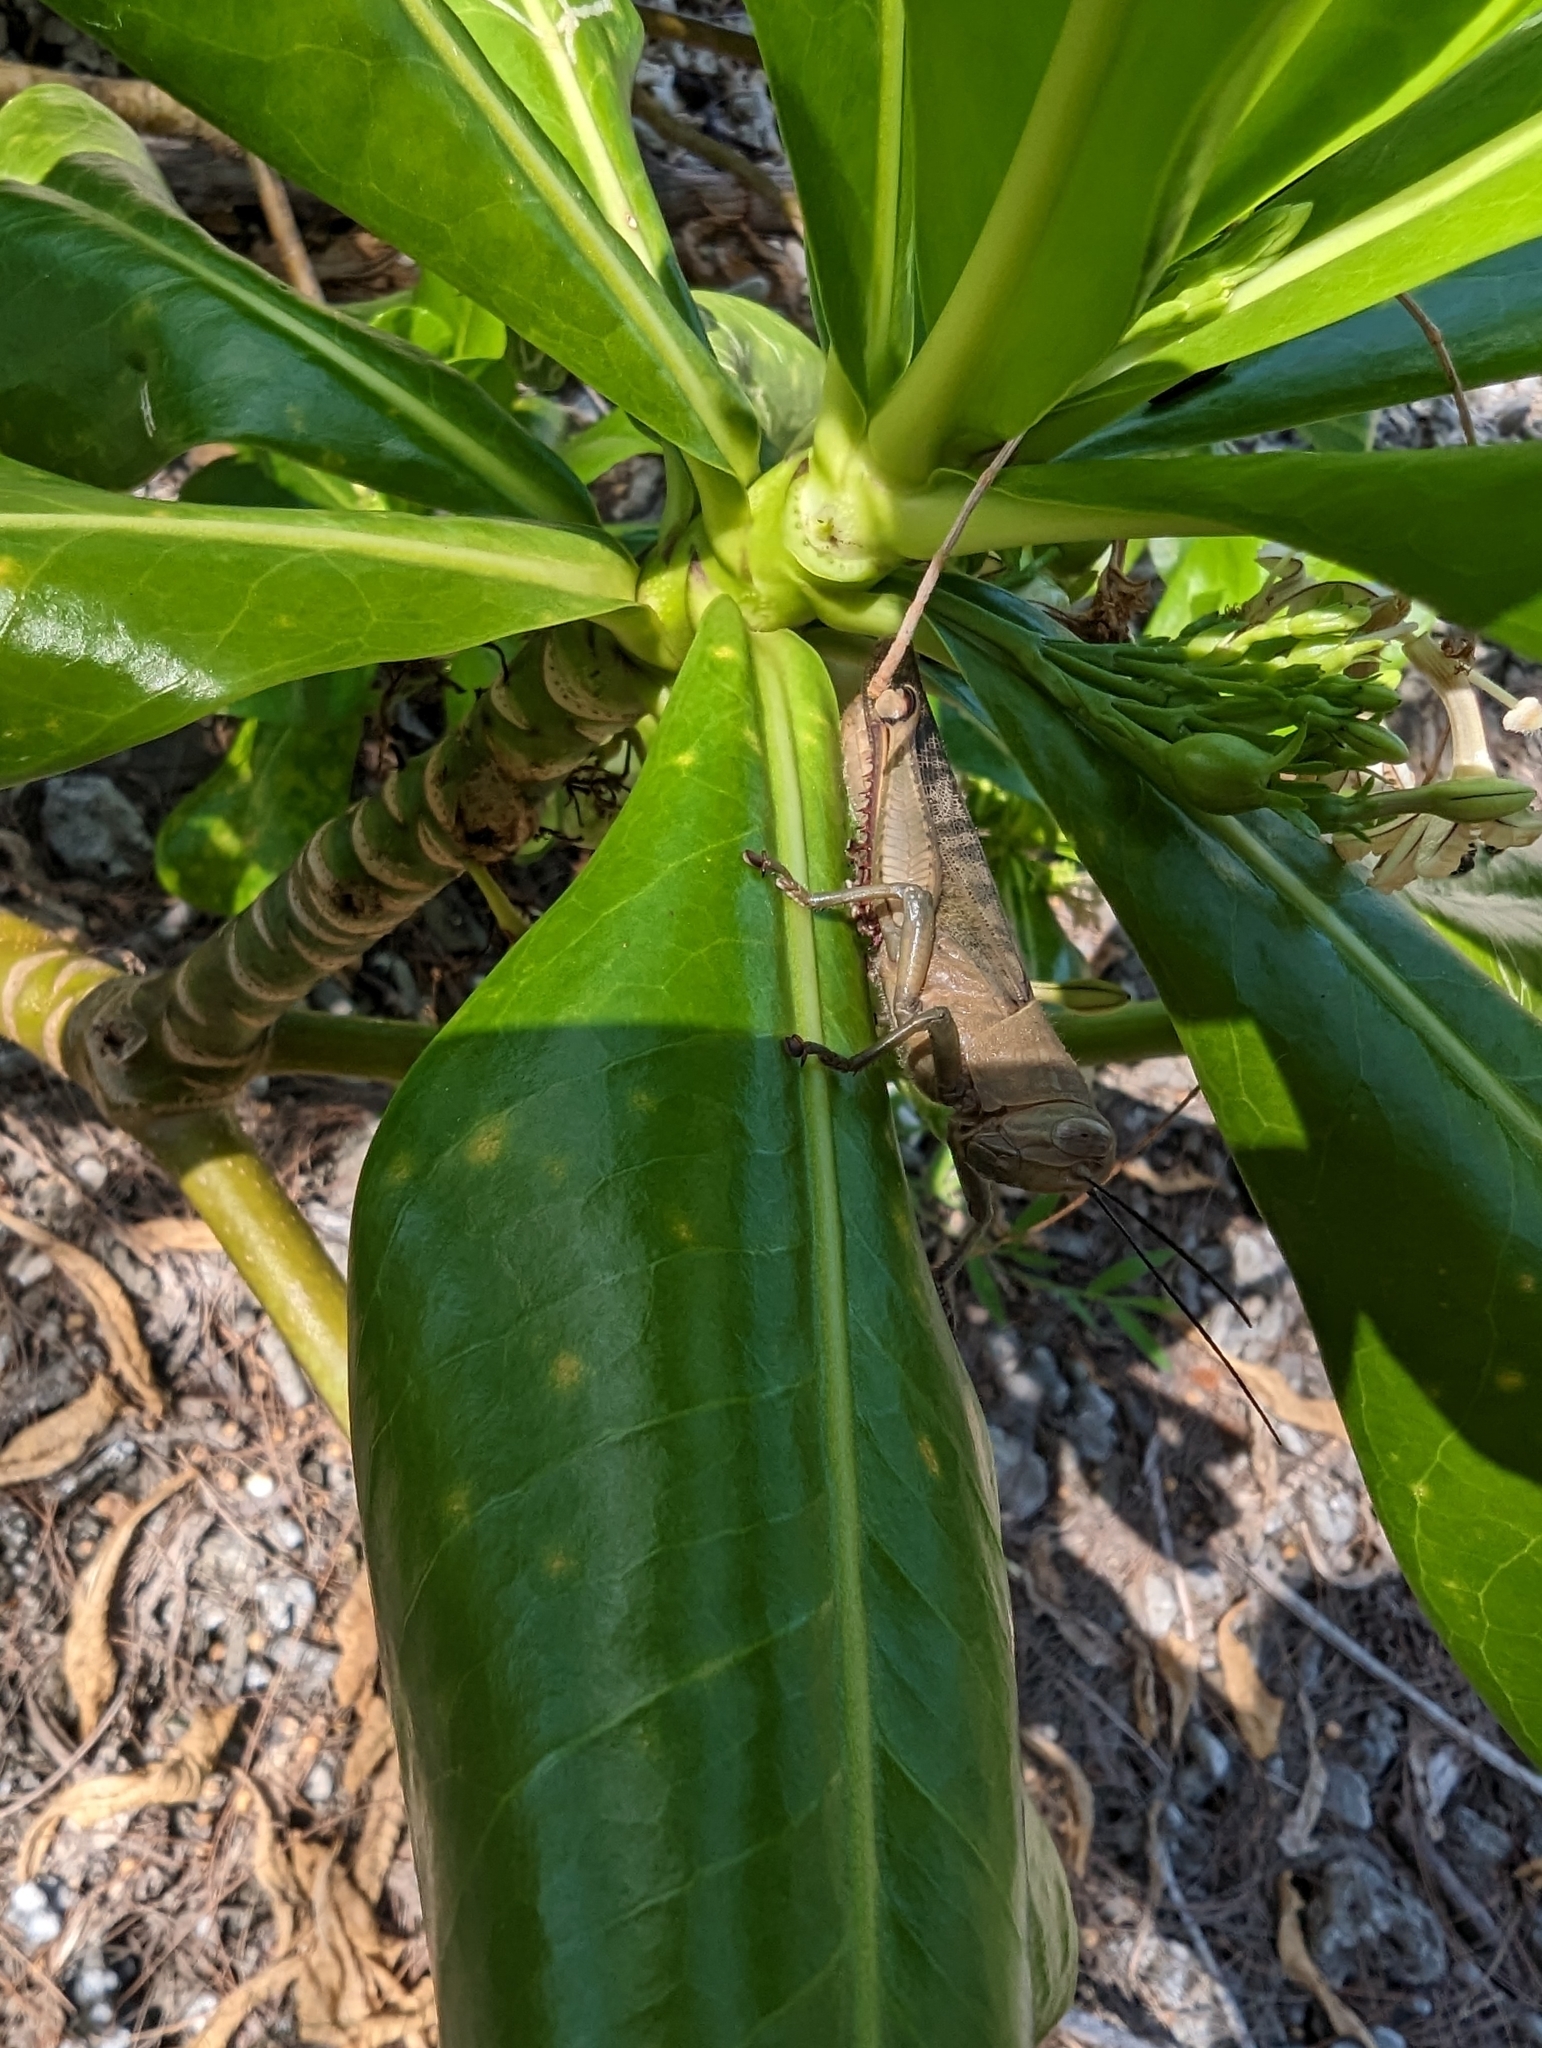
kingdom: Animalia
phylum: Arthropoda
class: Insecta
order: Orthoptera
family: Acrididae
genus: Valanga
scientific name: Valanga irregularis
